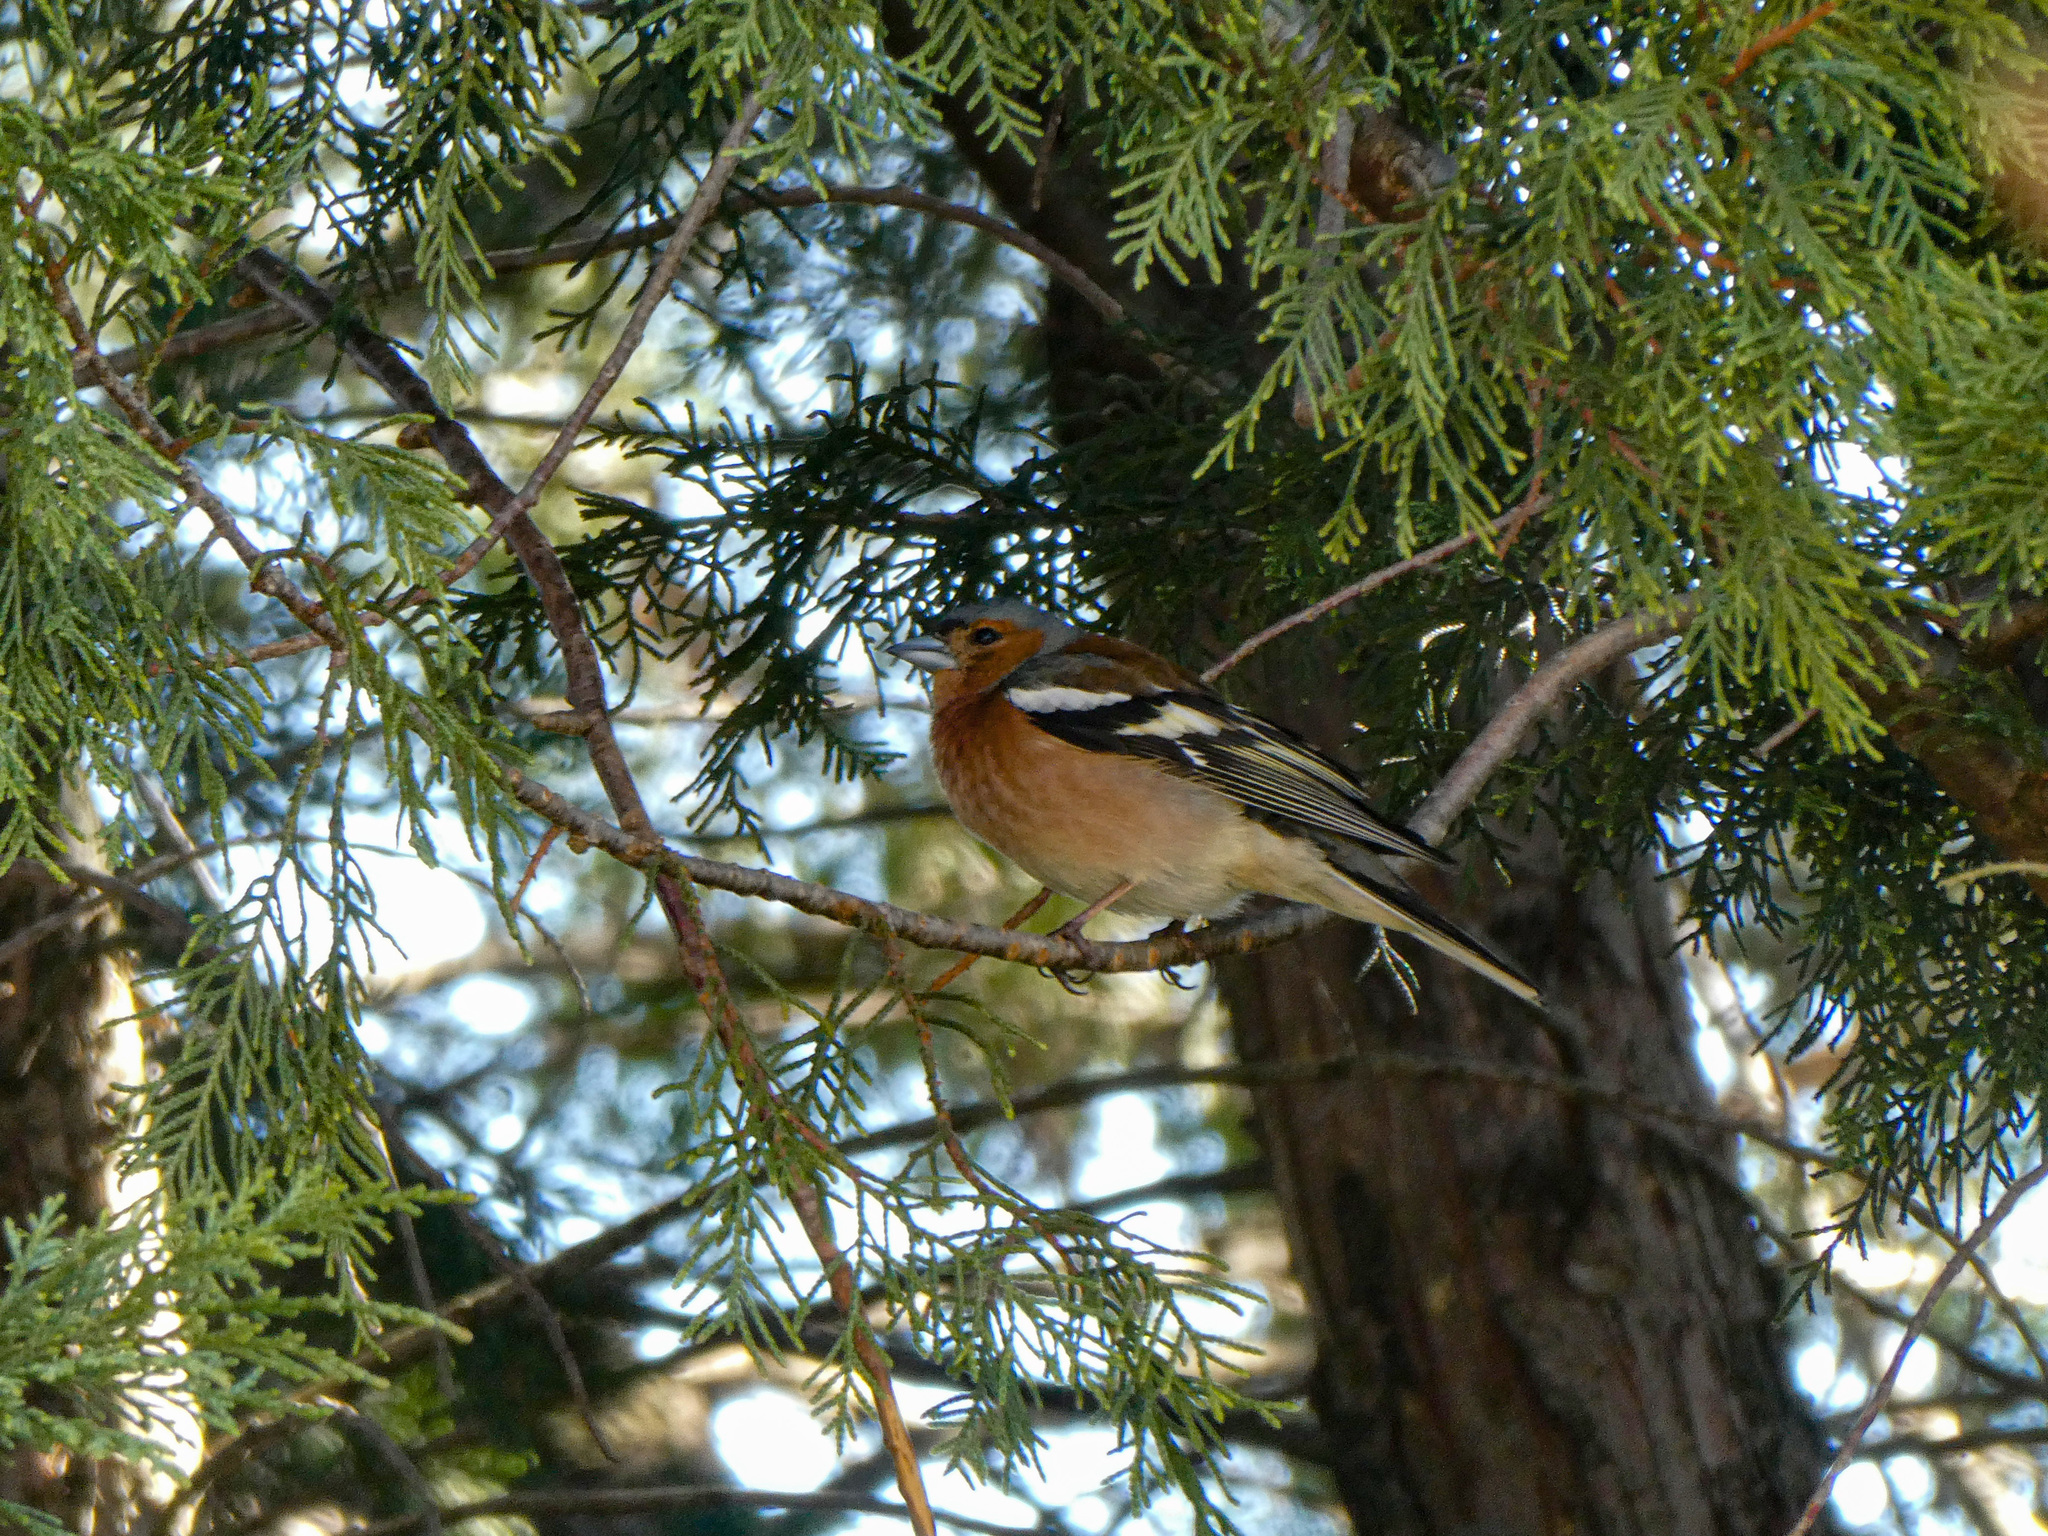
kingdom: Animalia
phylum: Chordata
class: Aves
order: Passeriformes
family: Fringillidae
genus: Fringilla
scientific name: Fringilla coelebs
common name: Common chaffinch
